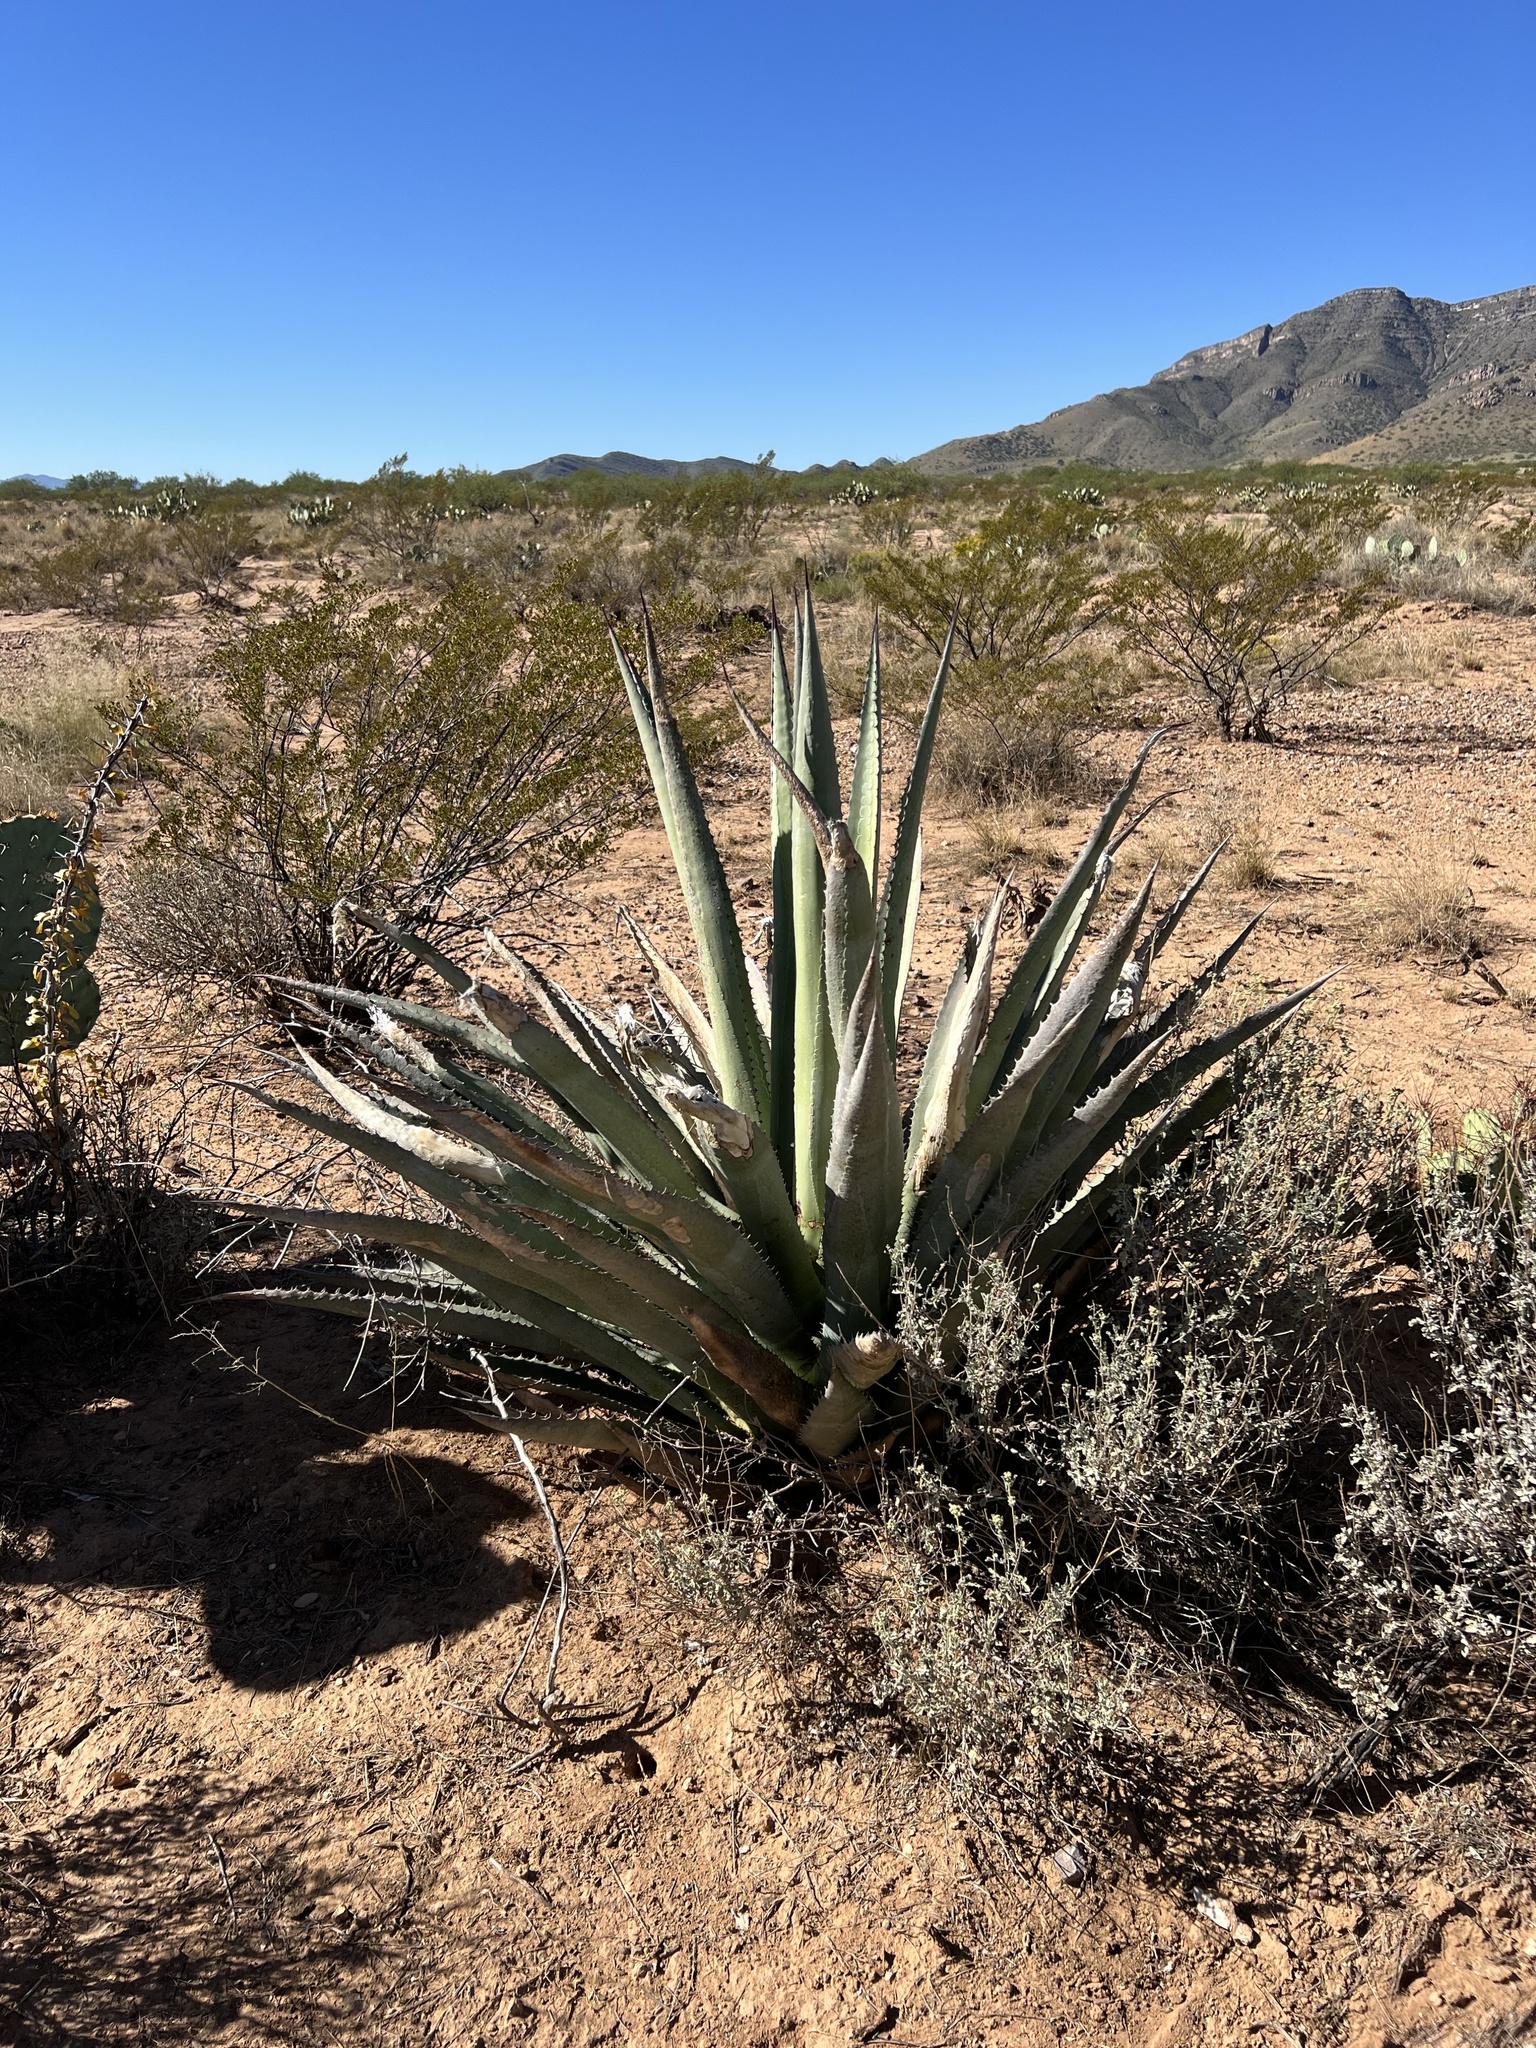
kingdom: Plantae
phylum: Tracheophyta
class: Liliopsida
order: Asparagales
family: Asparagaceae
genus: Agave
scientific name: Agave palmeri
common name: Palmer agave
